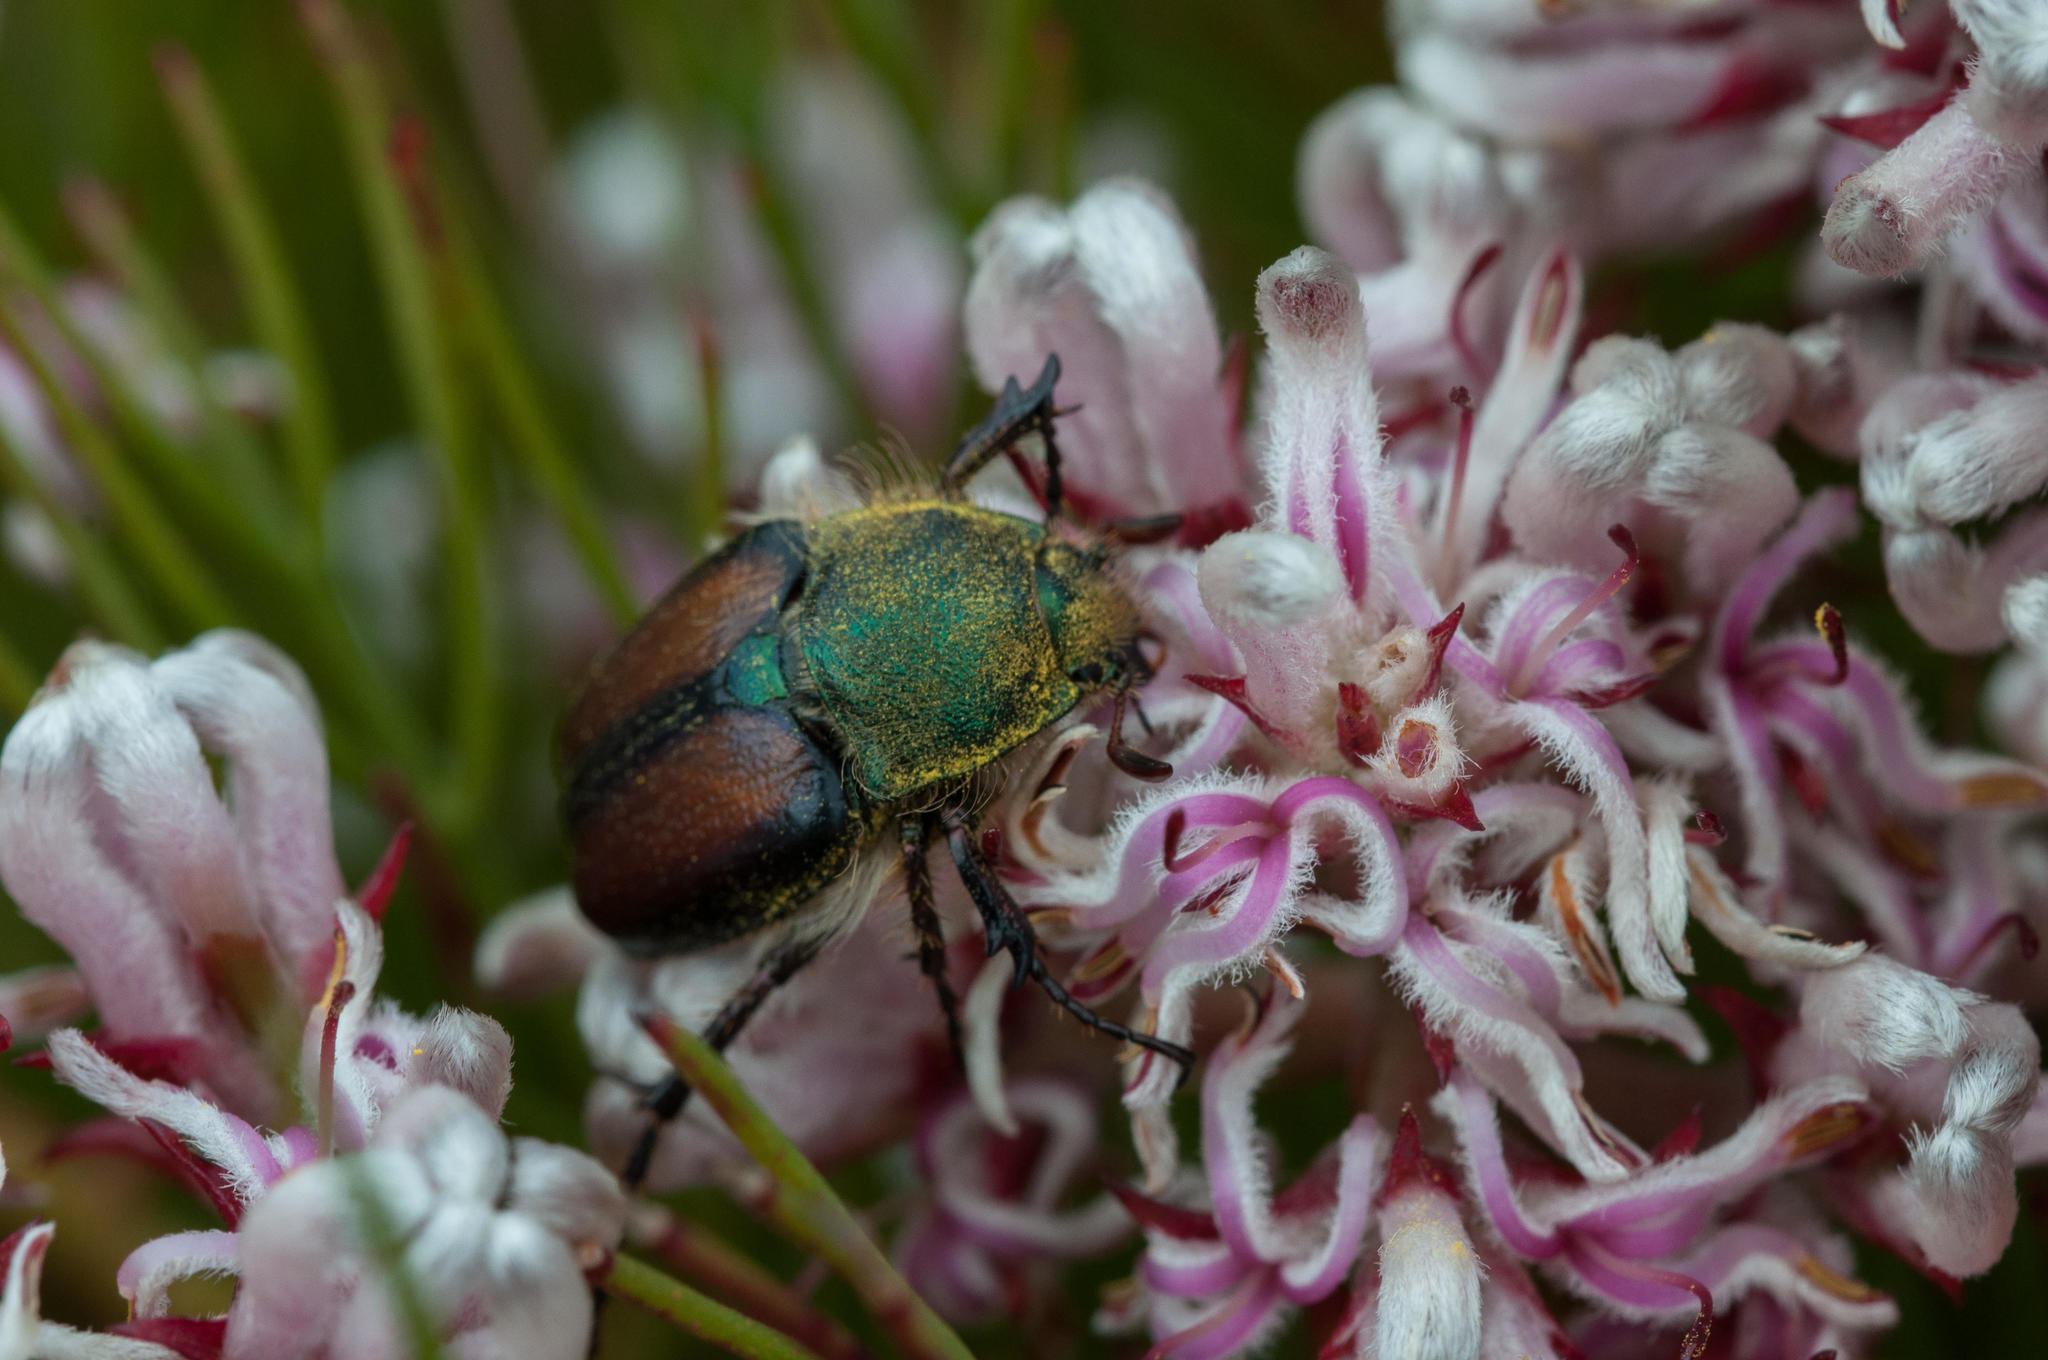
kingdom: Plantae
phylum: Tracheophyta
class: Magnoliopsida
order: Proteales
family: Proteaceae
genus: Serruria
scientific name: Serruria ascendens
